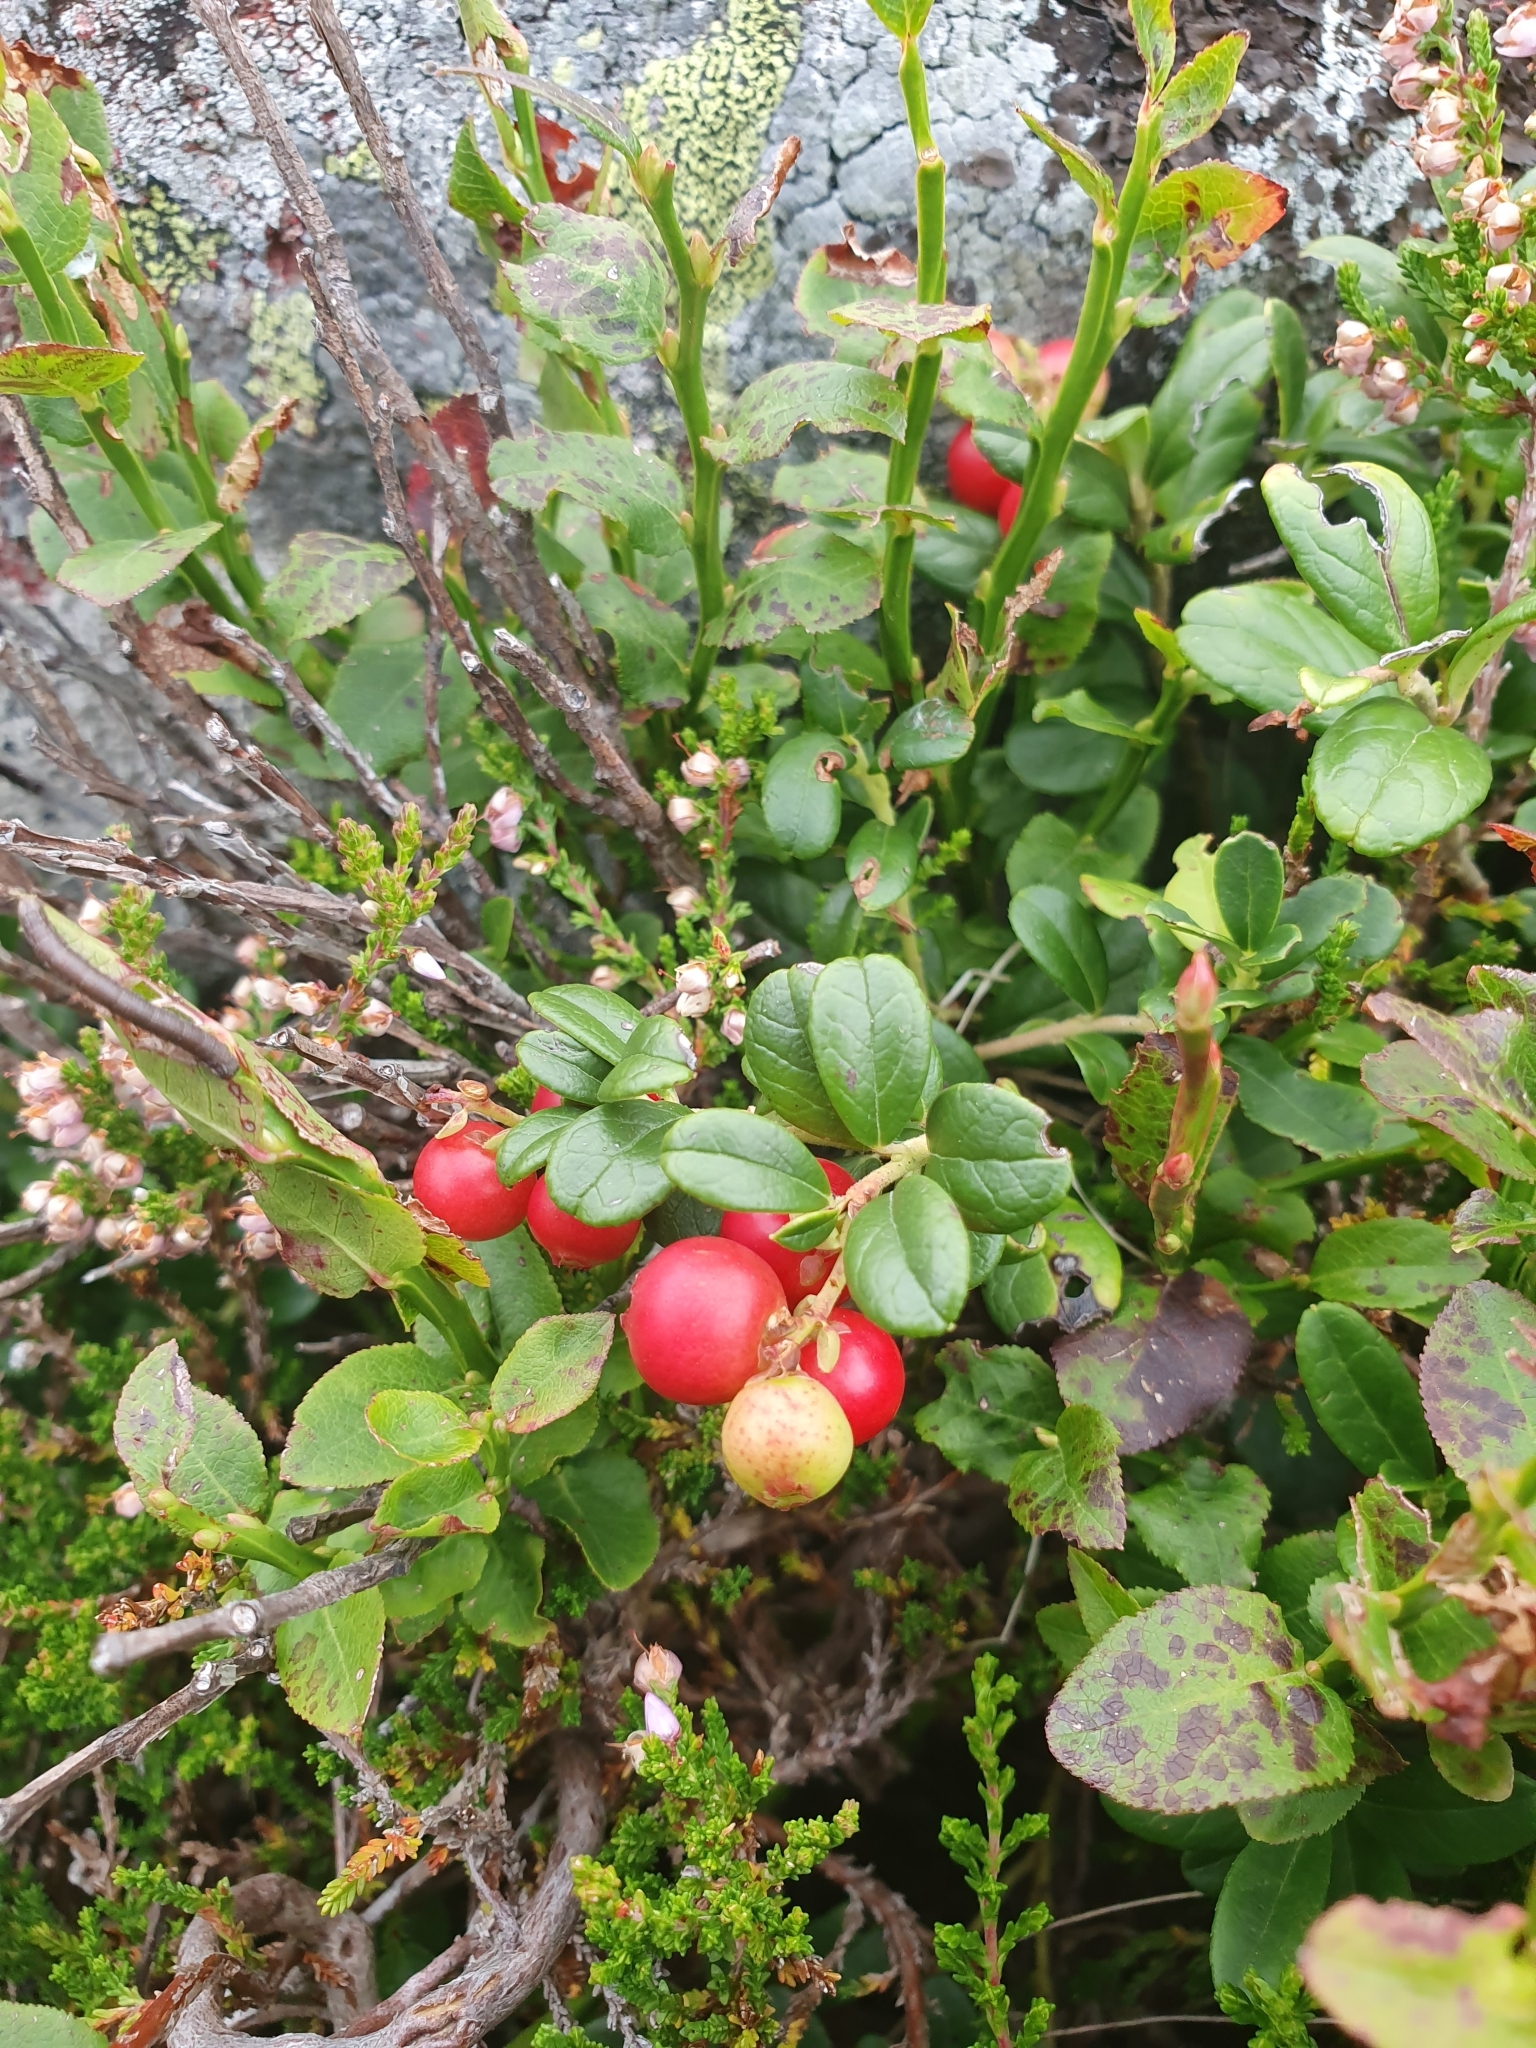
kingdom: Plantae
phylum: Tracheophyta
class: Magnoliopsida
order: Ericales
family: Ericaceae
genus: Vaccinium
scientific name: Vaccinium vitis-idaea
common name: Cowberry
